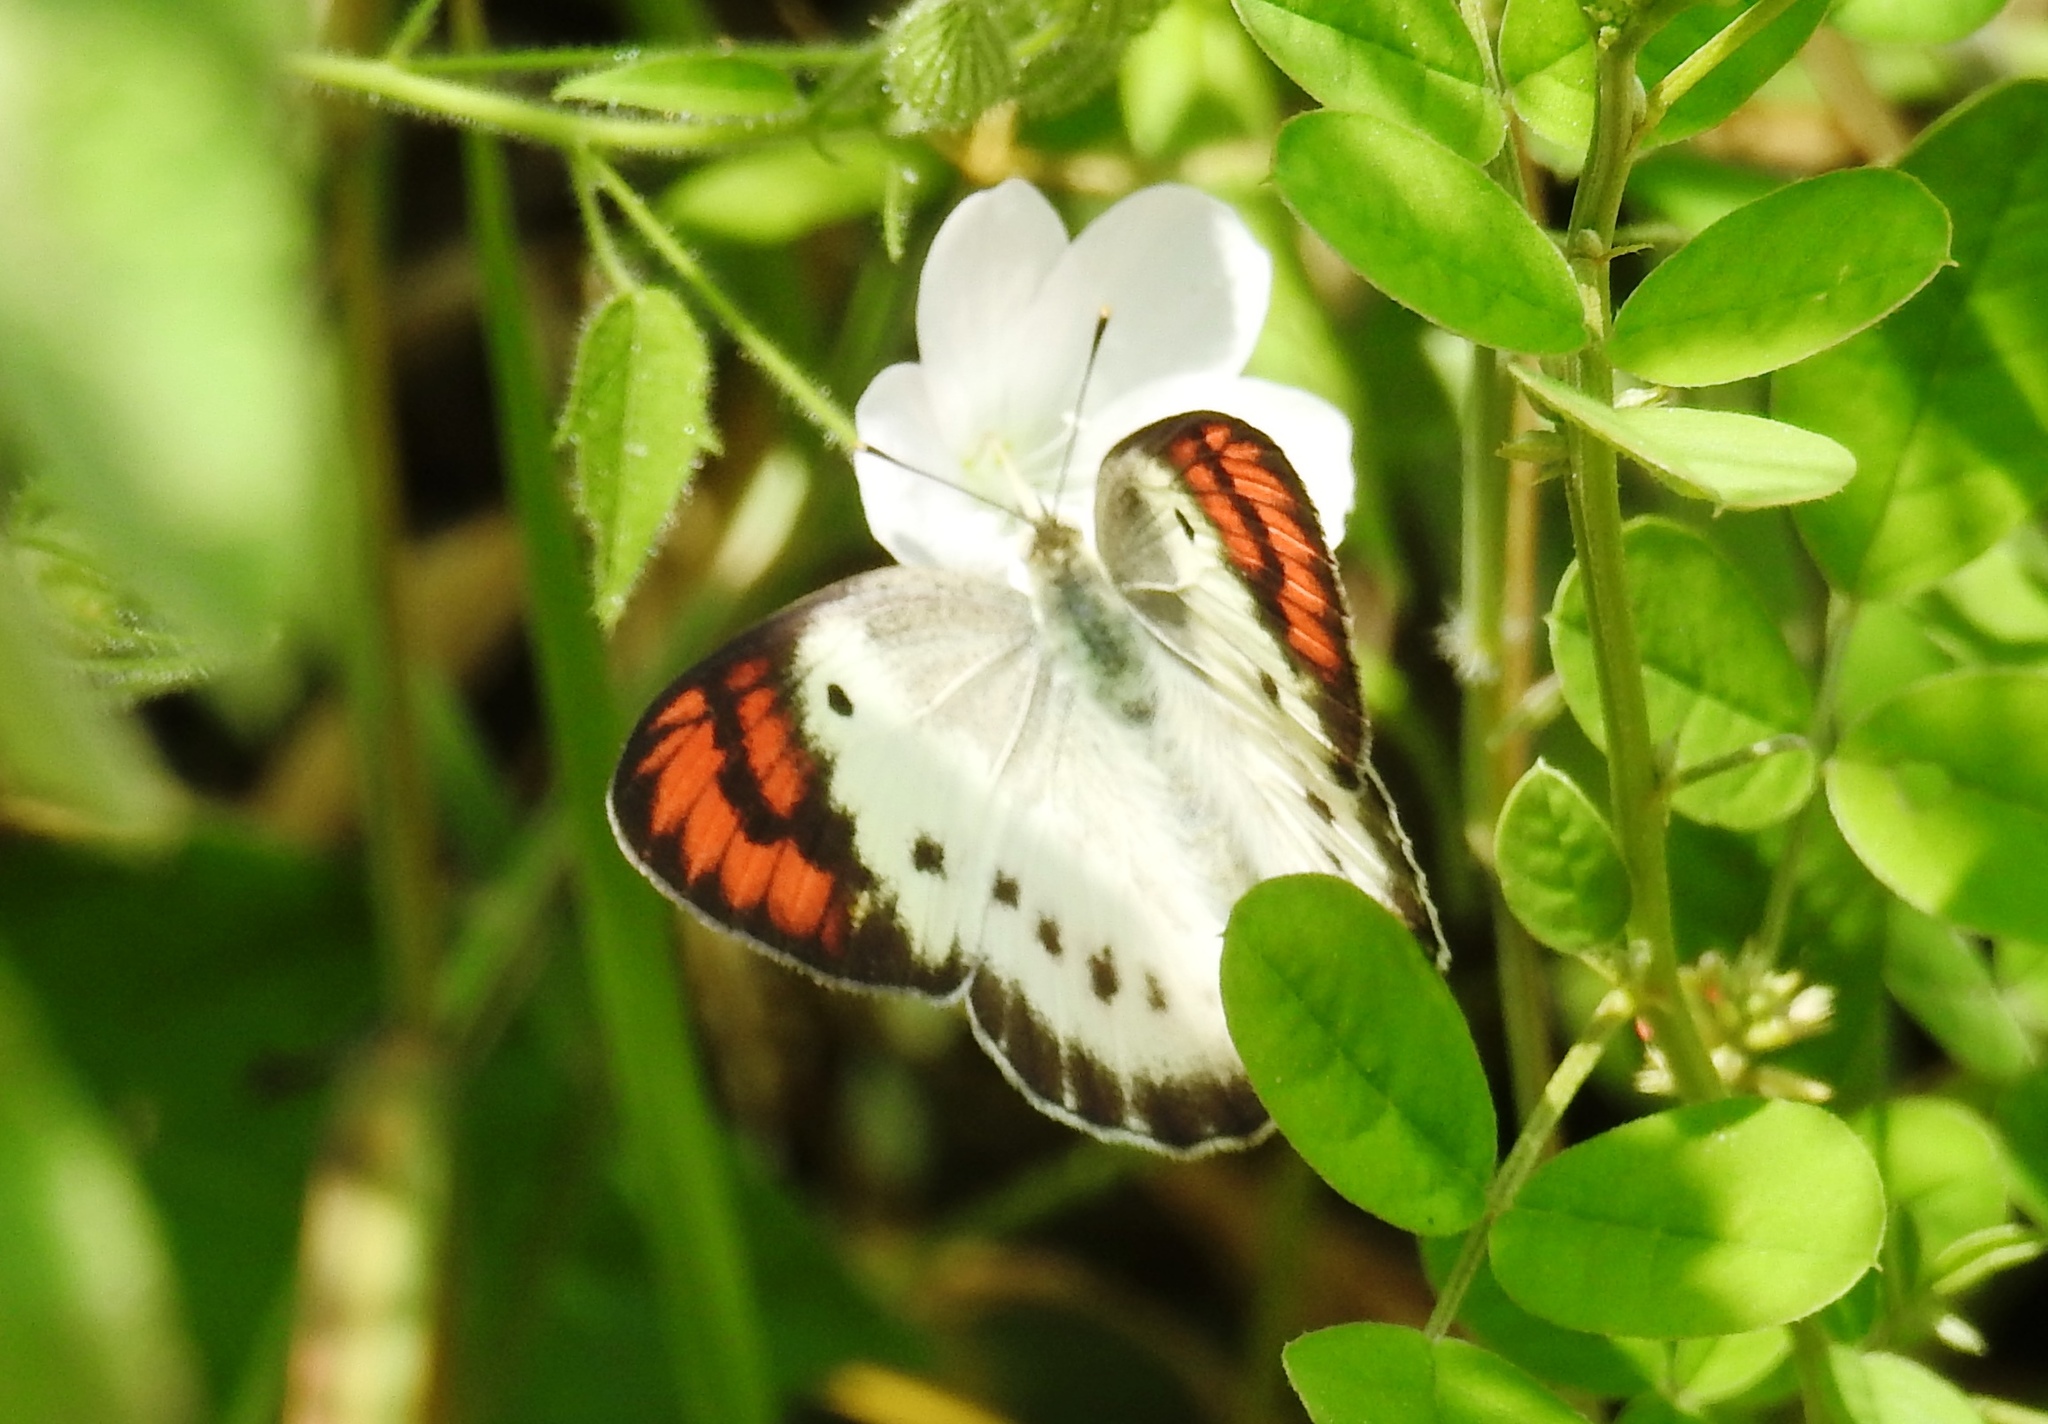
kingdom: Animalia
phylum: Arthropoda
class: Insecta
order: Lepidoptera
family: Pieridae
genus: Colotis
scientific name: Colotis danae
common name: Crimson tip
